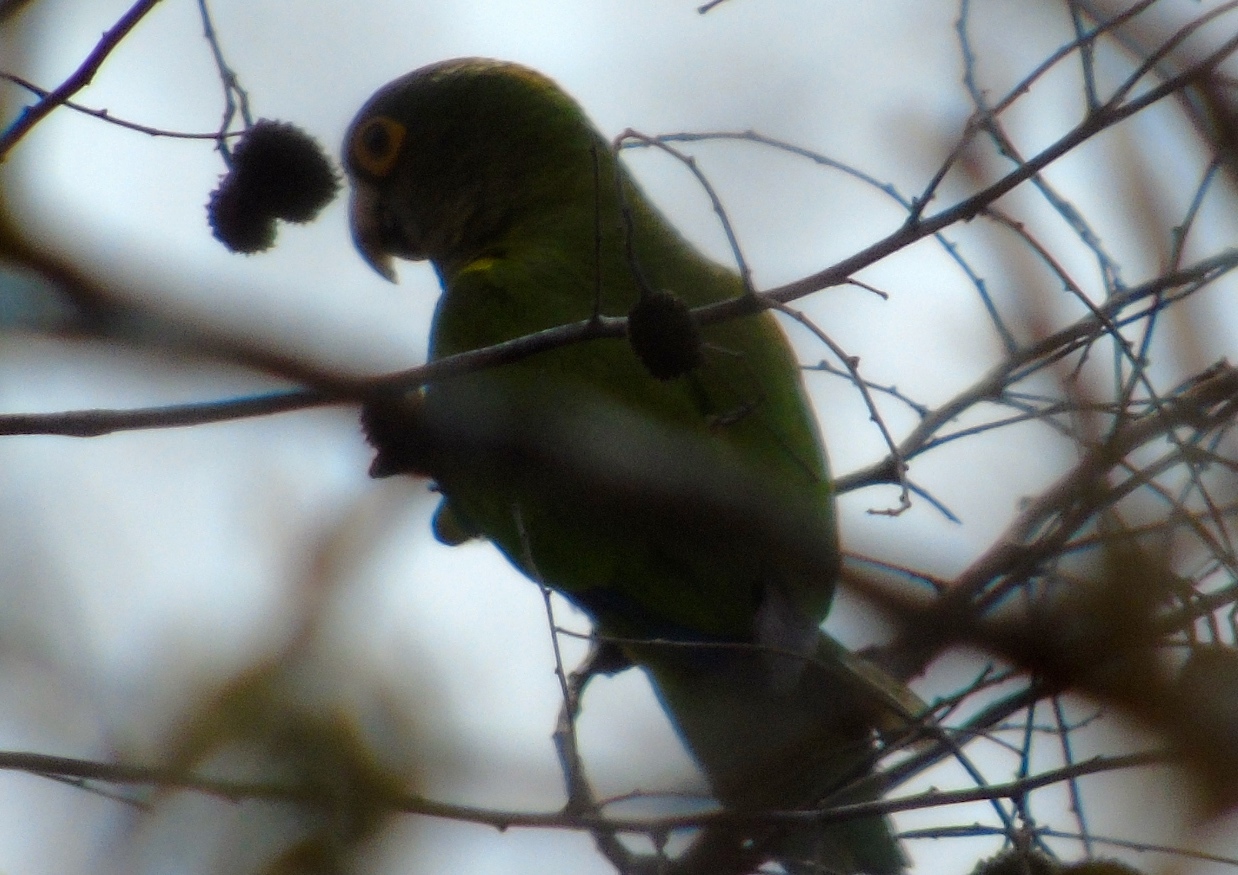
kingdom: Animalia
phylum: Chordata
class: Aves
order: Psittaciformes
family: Psittacidae
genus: Aratinga
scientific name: Aratinga canicularis
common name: Orange-fronted parakeet
